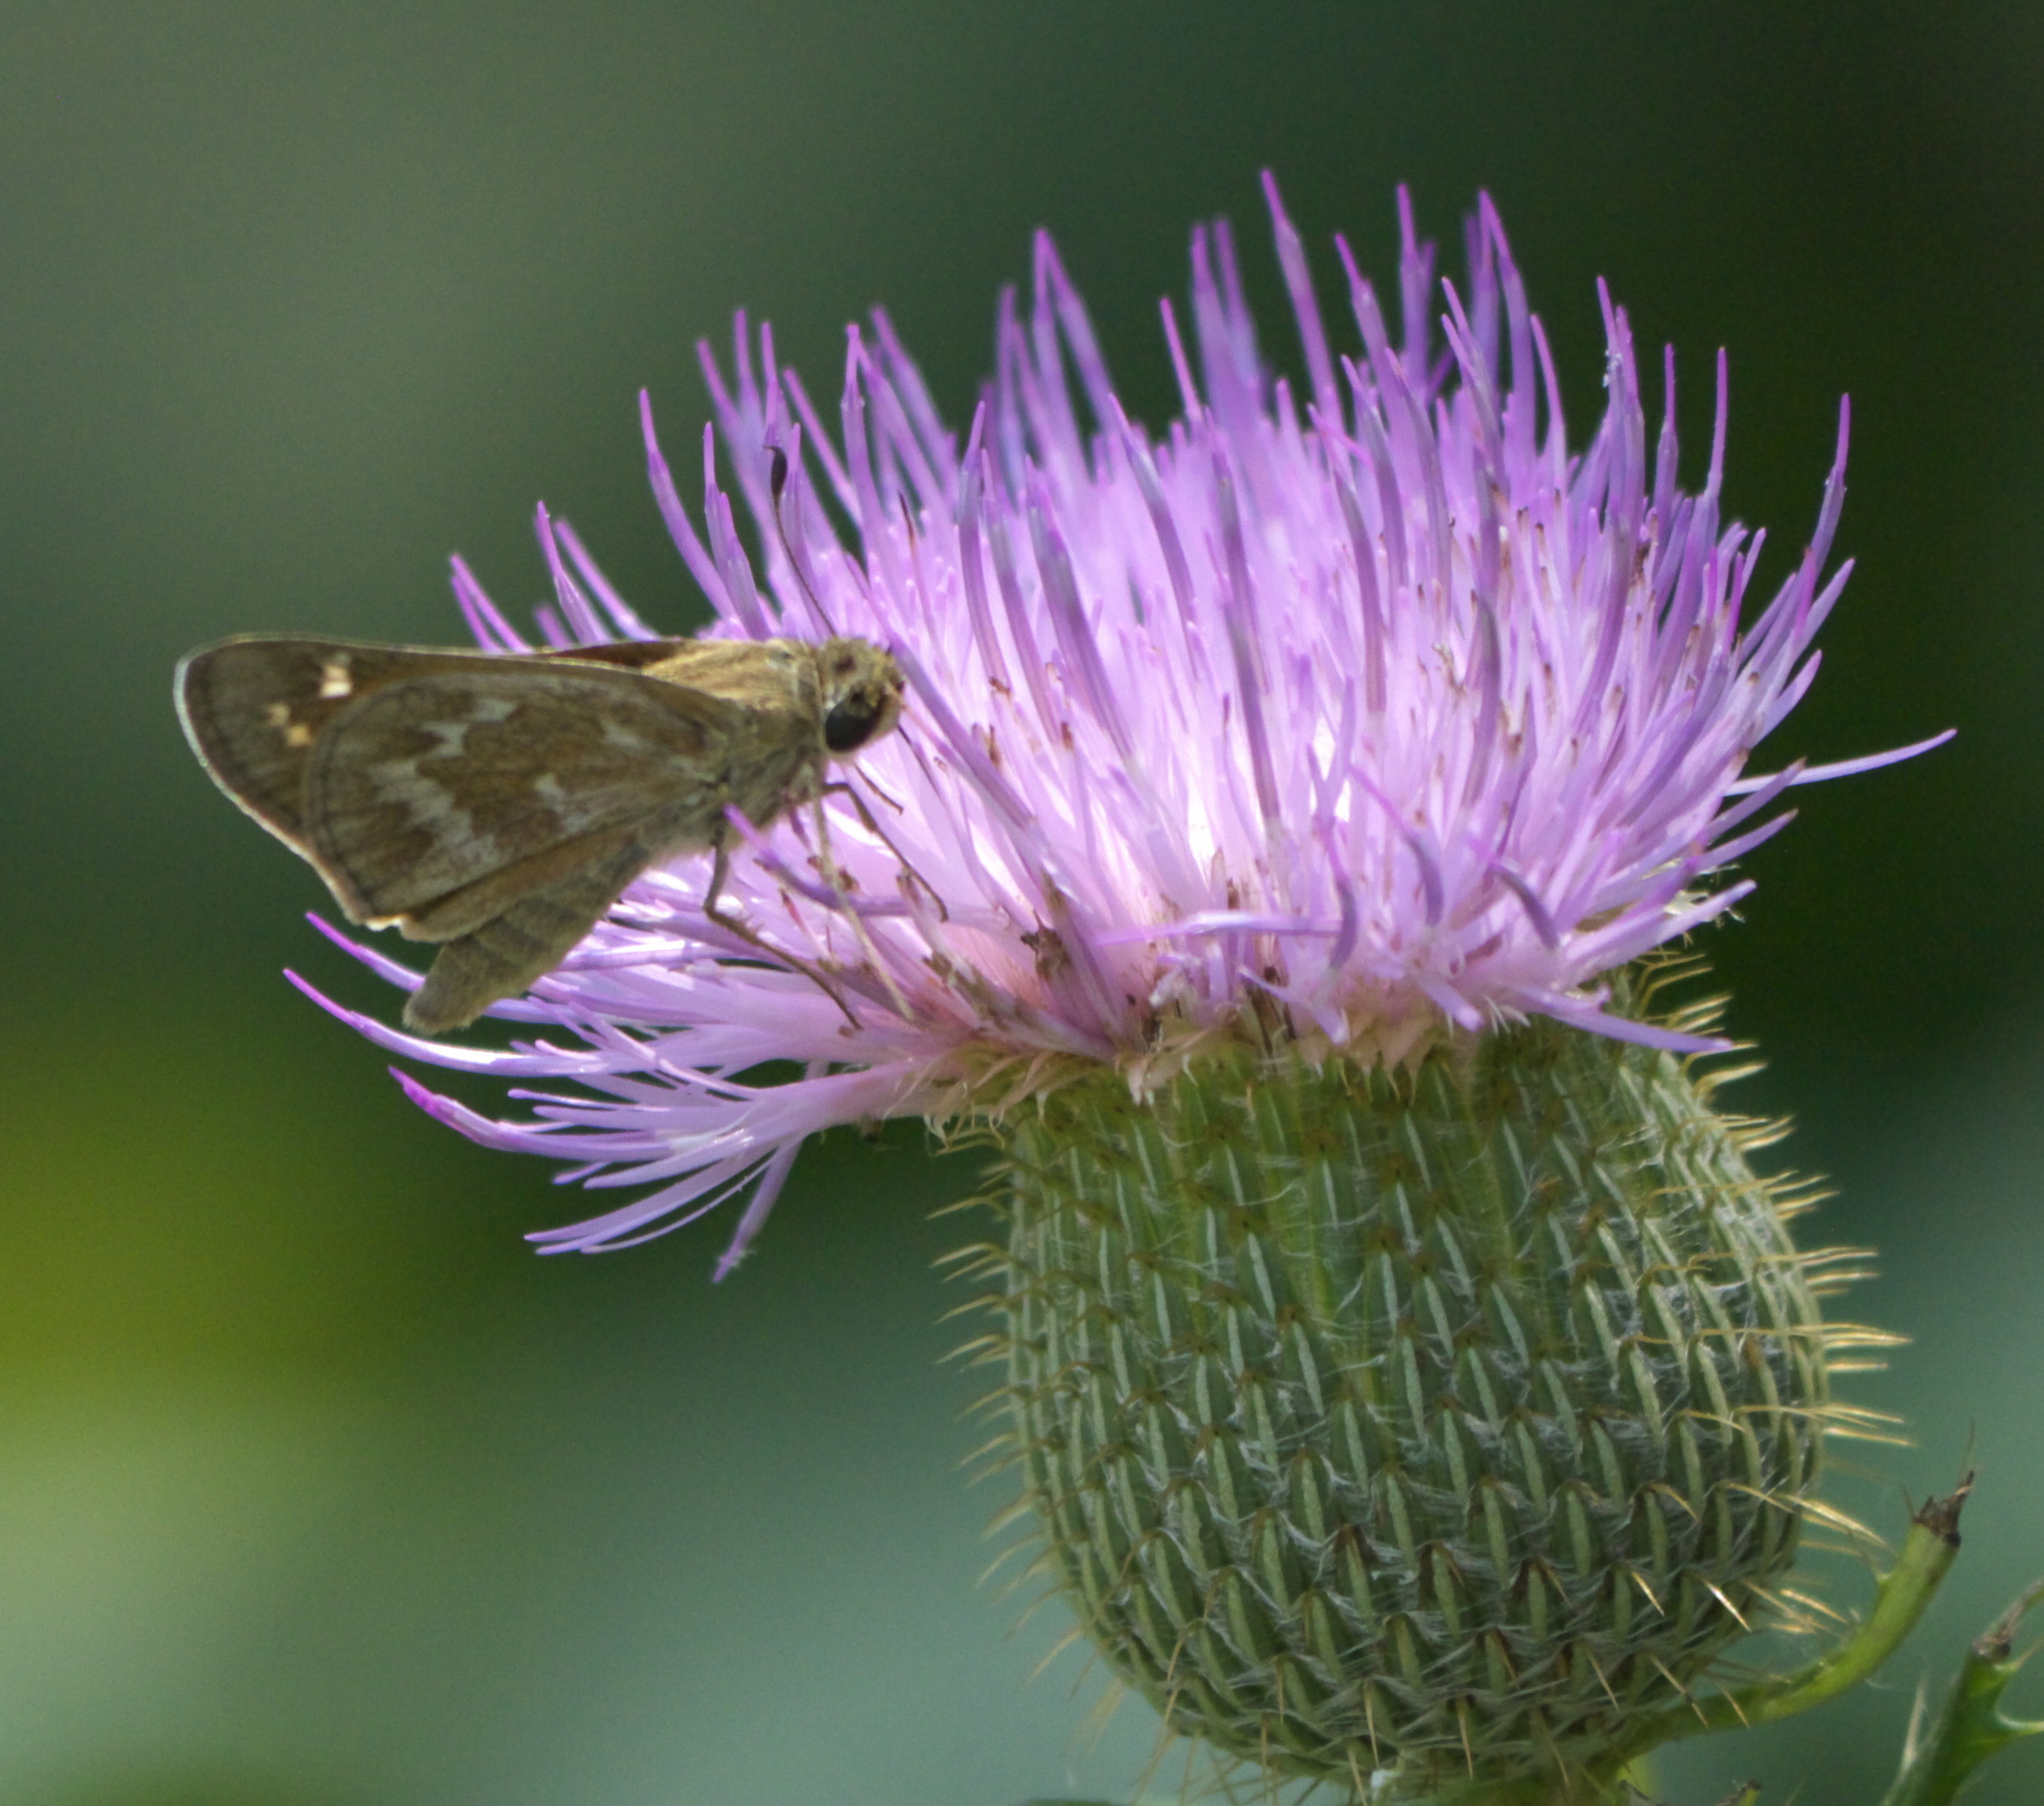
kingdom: Animalia
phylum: Arthropoda
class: Insecta
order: Lepidoptera
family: Hesperiidae
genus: Atalopedes
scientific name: Atalopedes
